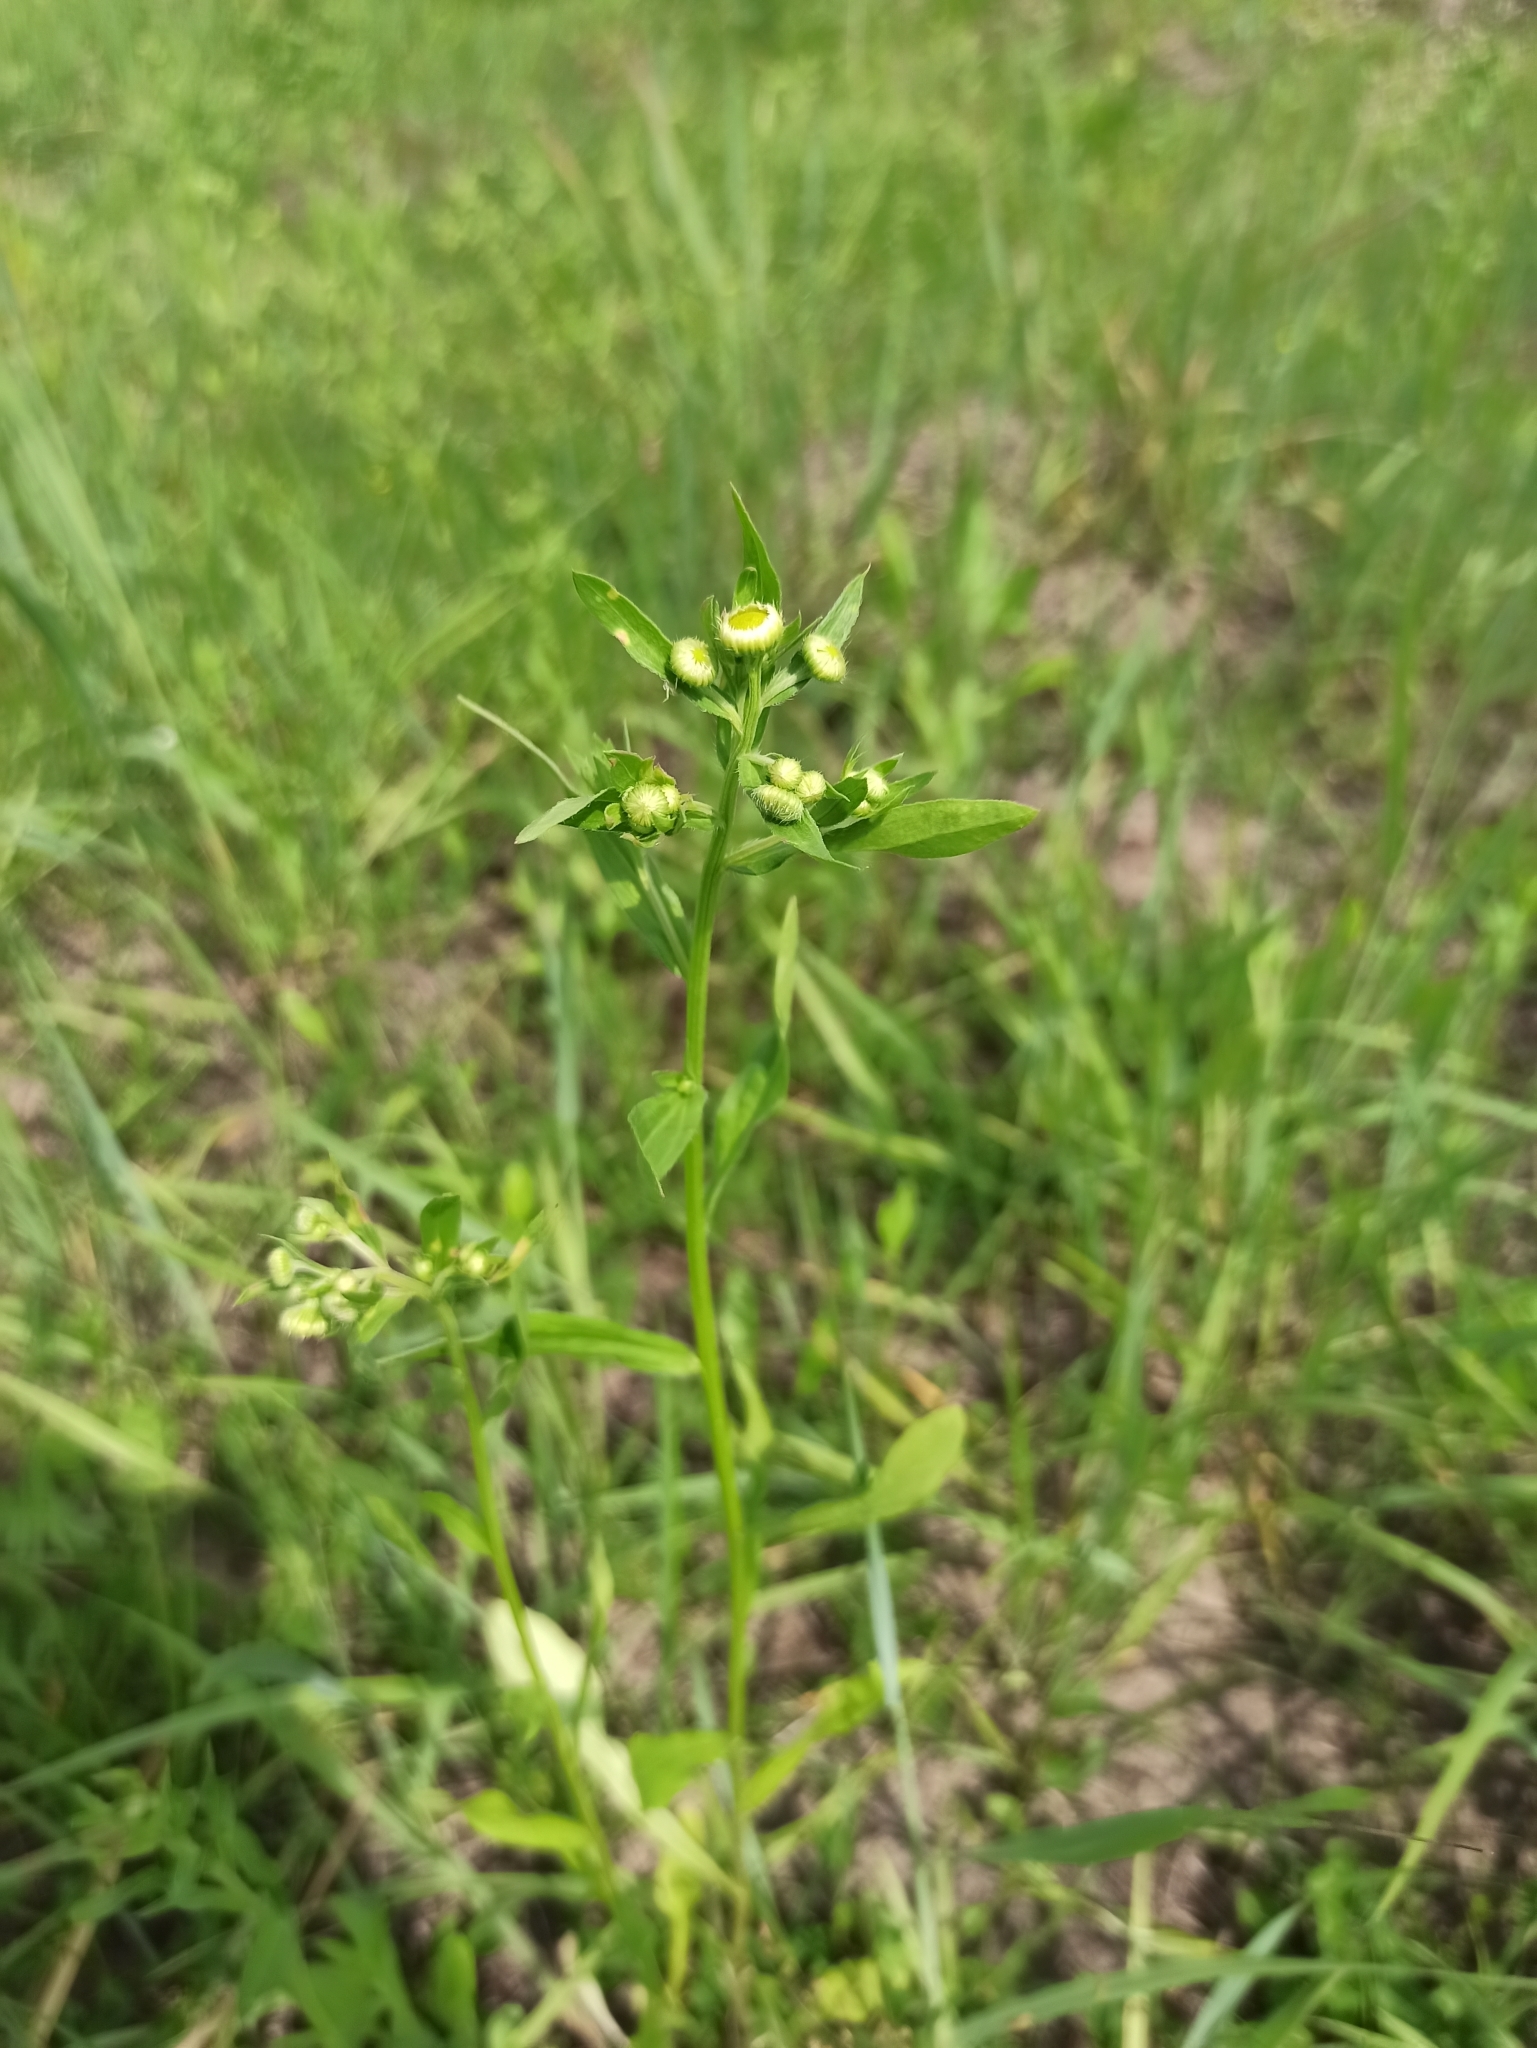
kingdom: Plantae
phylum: Tracheophyta
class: Magnoliopsida
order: Asterales
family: Asteraceae
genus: Erigeron
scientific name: Erigeron annuus
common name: Tall fleabane
